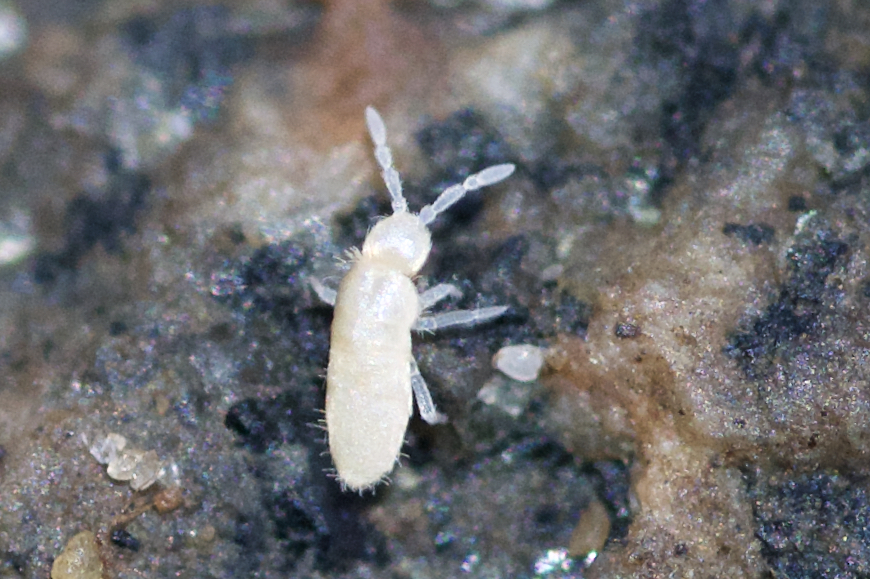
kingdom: Animalia
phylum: Arthropoda
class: Collembola
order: Entomobryomorpha
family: Paronellidae
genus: Cyphoderus
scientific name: Cyphoderus similis
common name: Springtail
